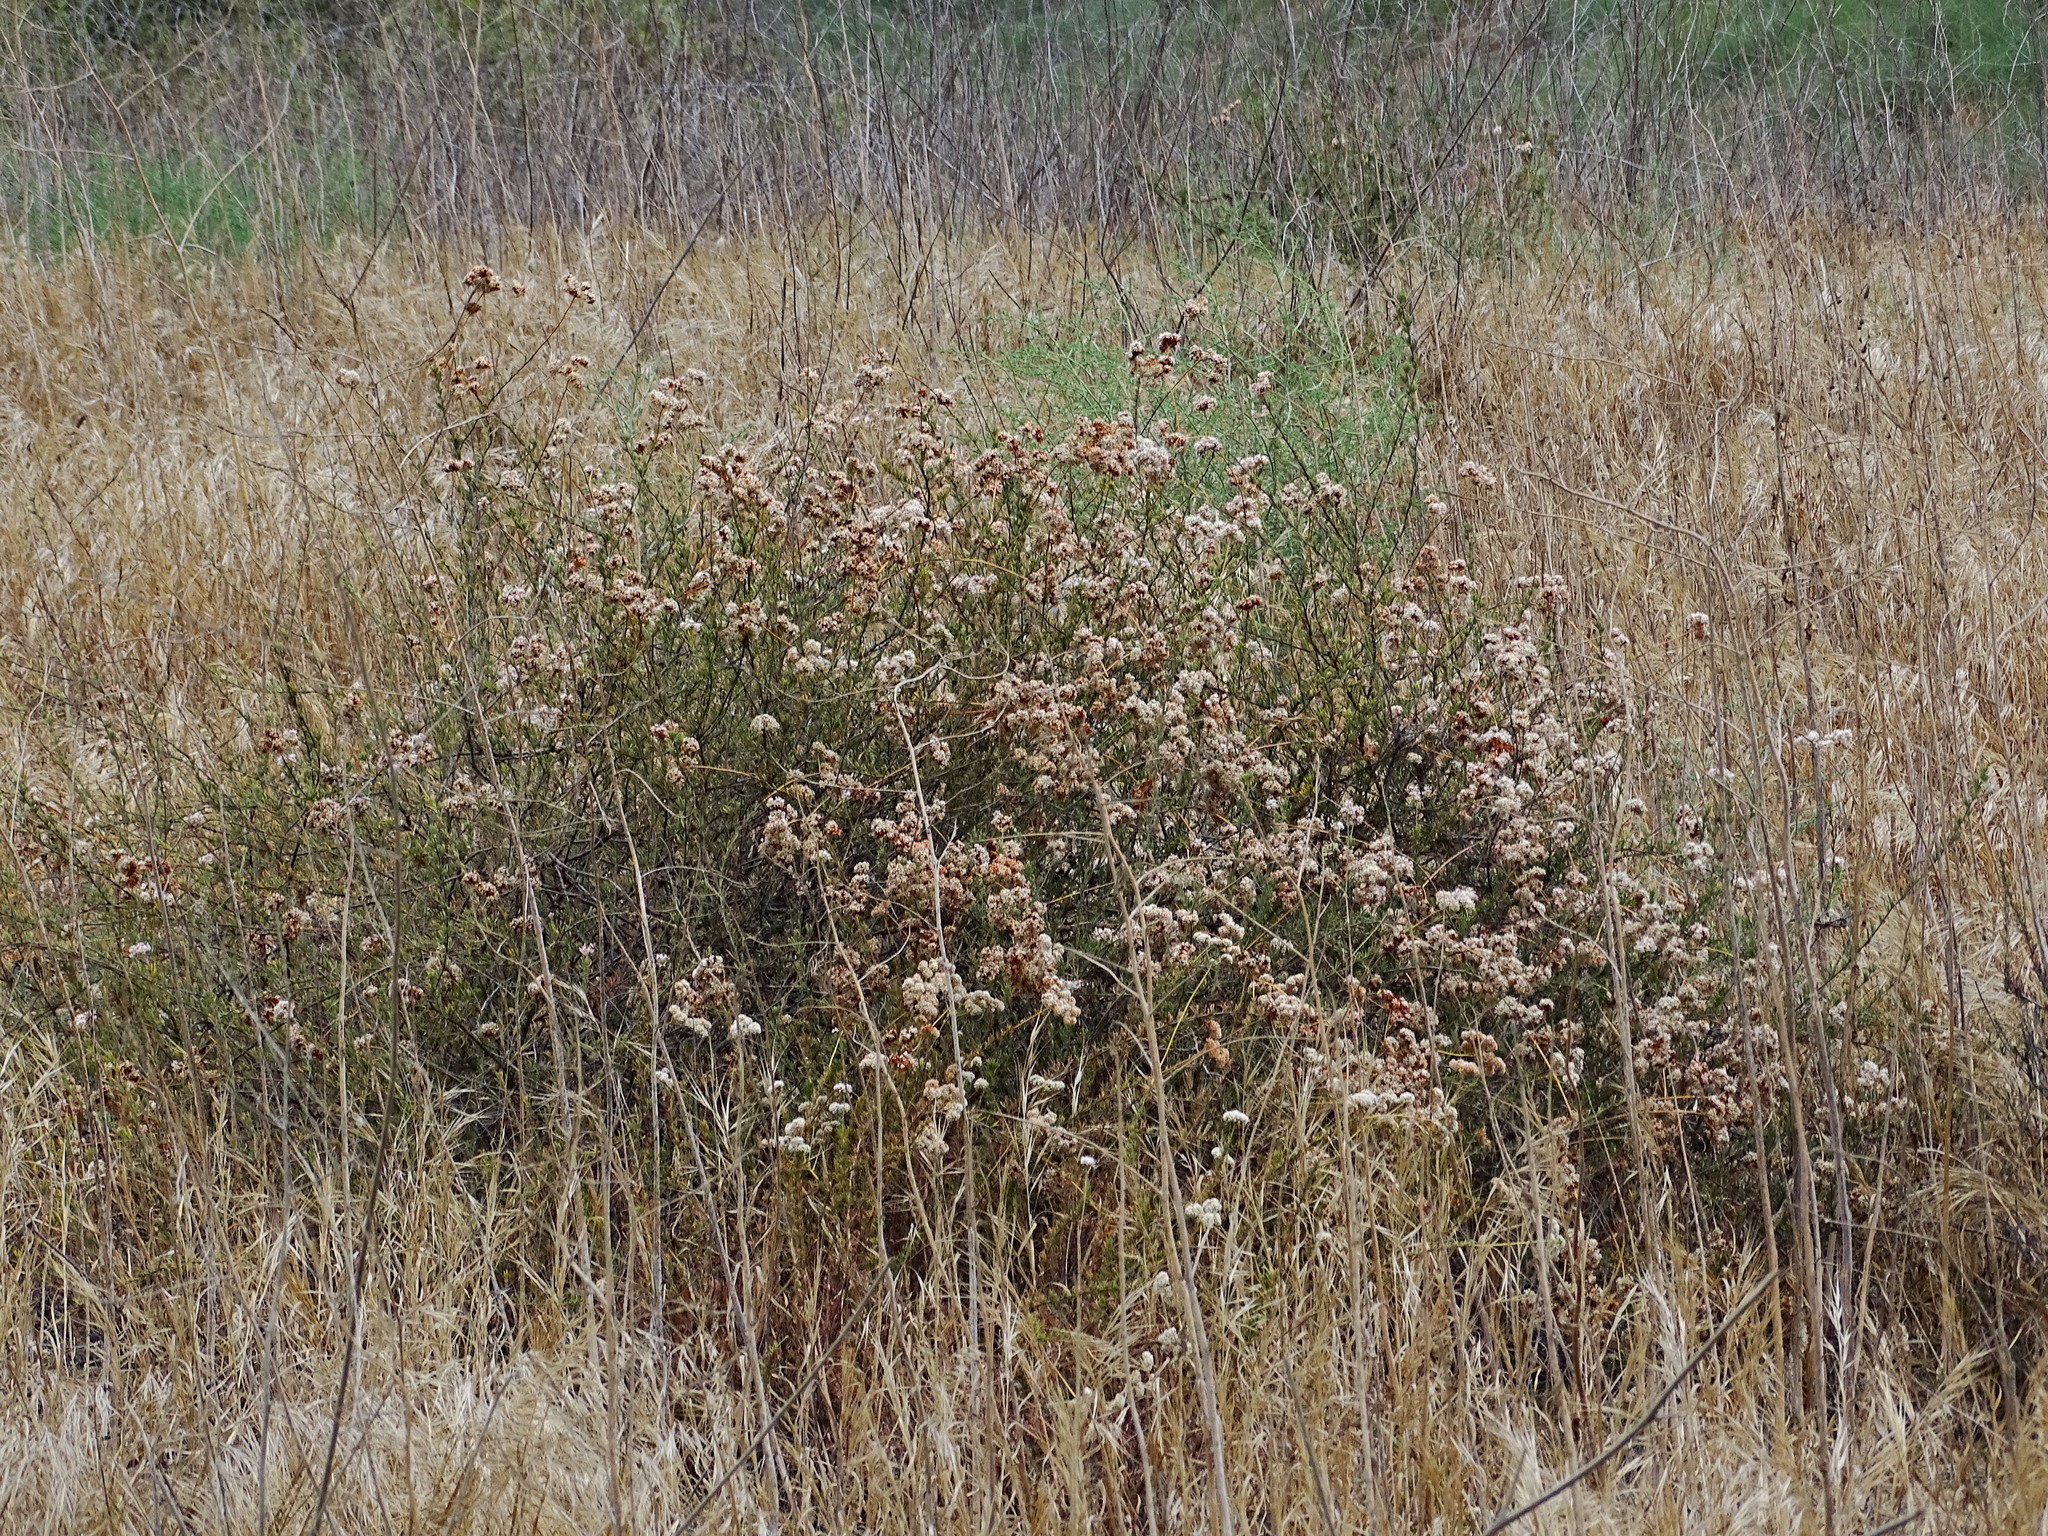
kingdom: Plantae
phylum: Tracheophyta
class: Magnoliopsida
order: Caryophyllales
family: Polygonaceae
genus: Eriogonum
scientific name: Eriogonum fasciculatum
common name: California wild buckwheat
